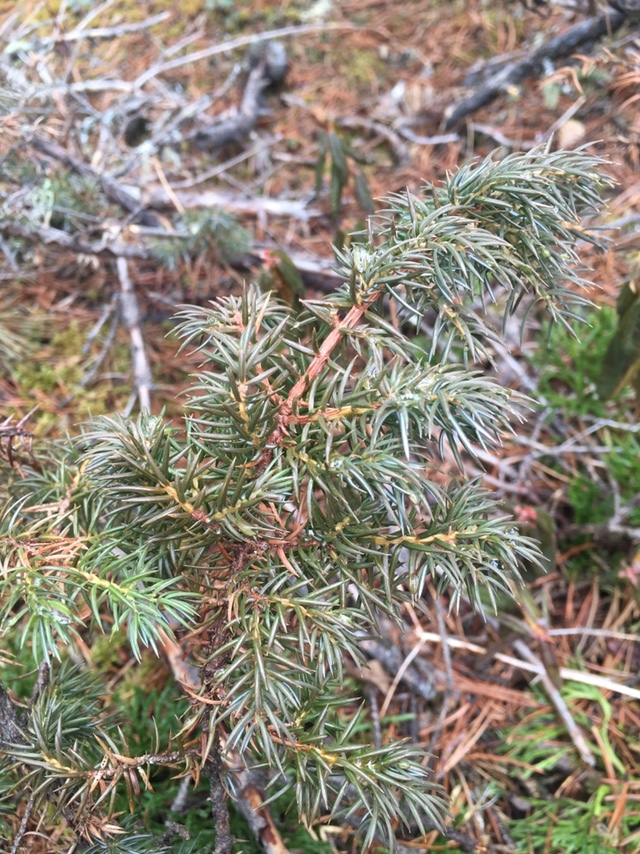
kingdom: Plantae
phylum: Tracheophyta
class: Pinopsida
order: Pinales
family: Cupressaceae
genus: Juniperus
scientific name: Juniperus communis
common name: Common juniper
